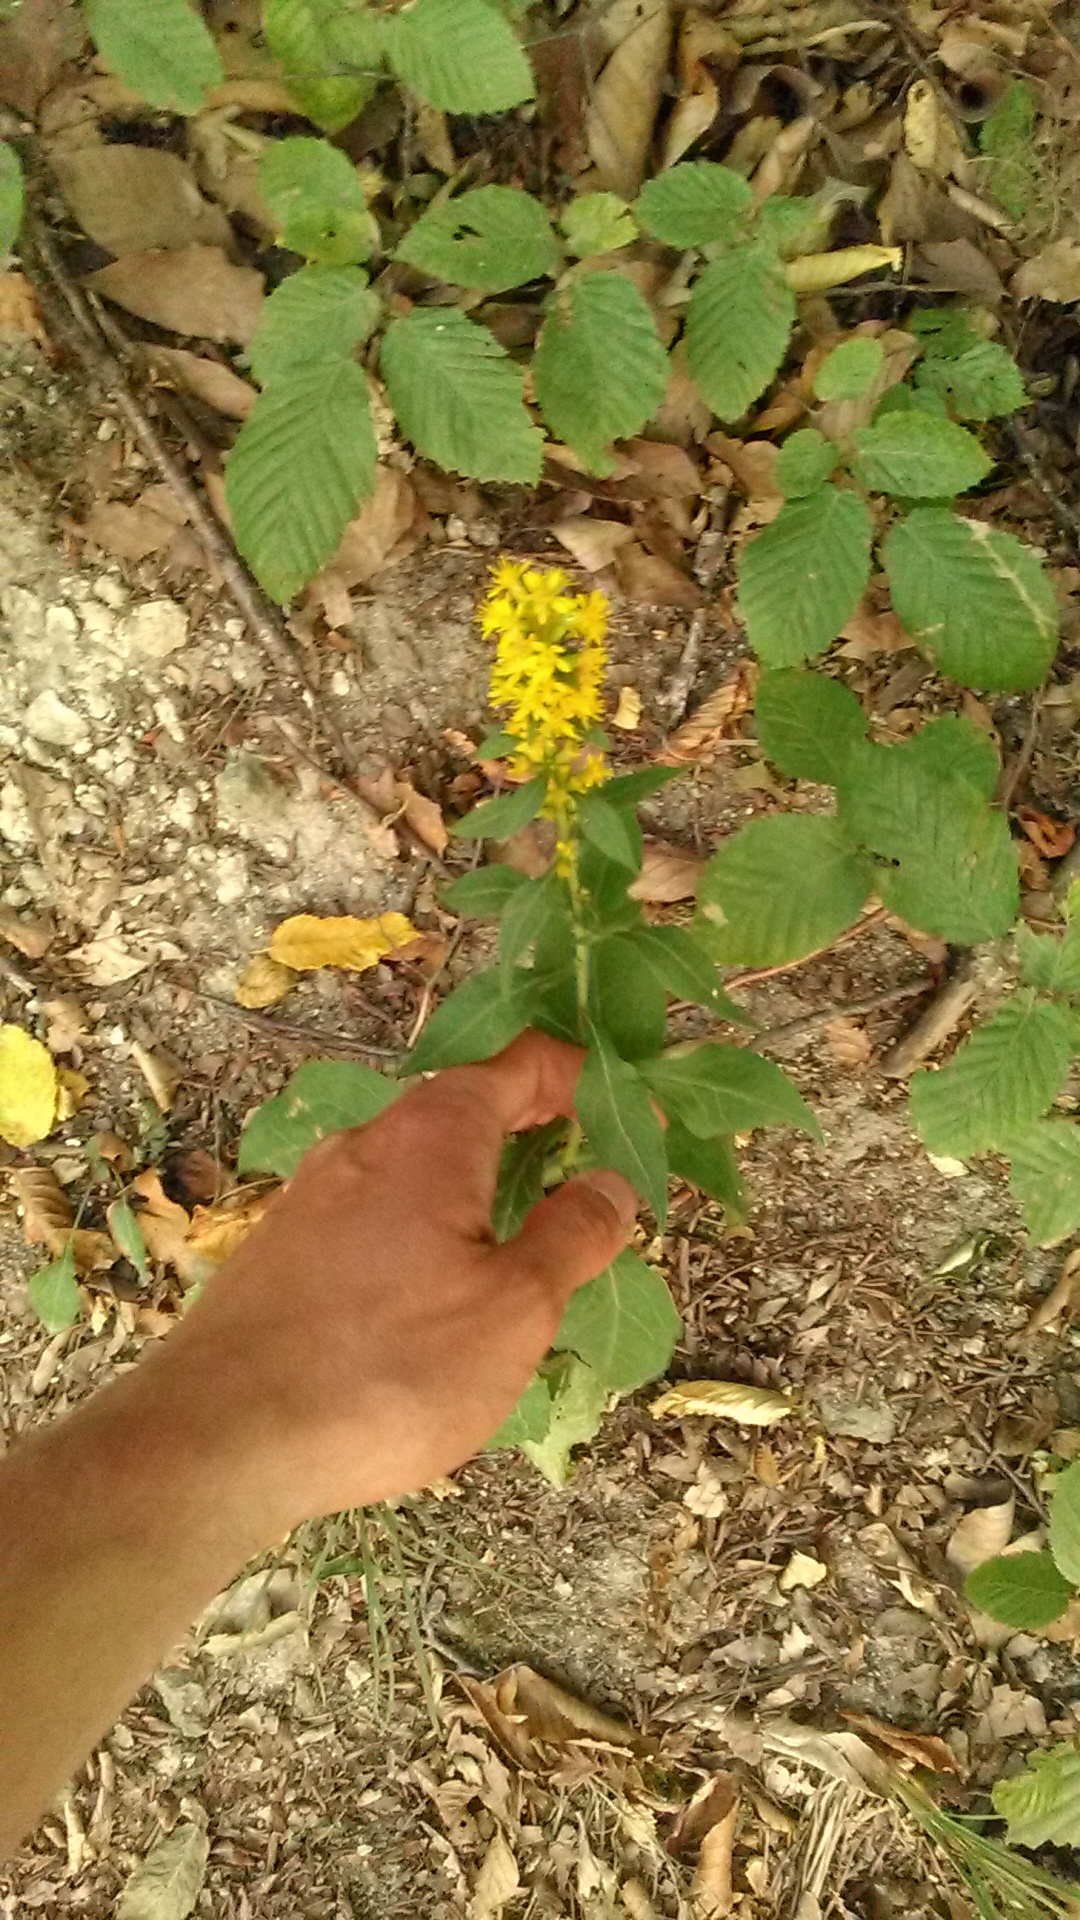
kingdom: Plantae
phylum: Tracheophyta
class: Magnoliopsida
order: Asterales
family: Asteraceae
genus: Solidago
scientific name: Solidago virgaurea
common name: Goldenrod
